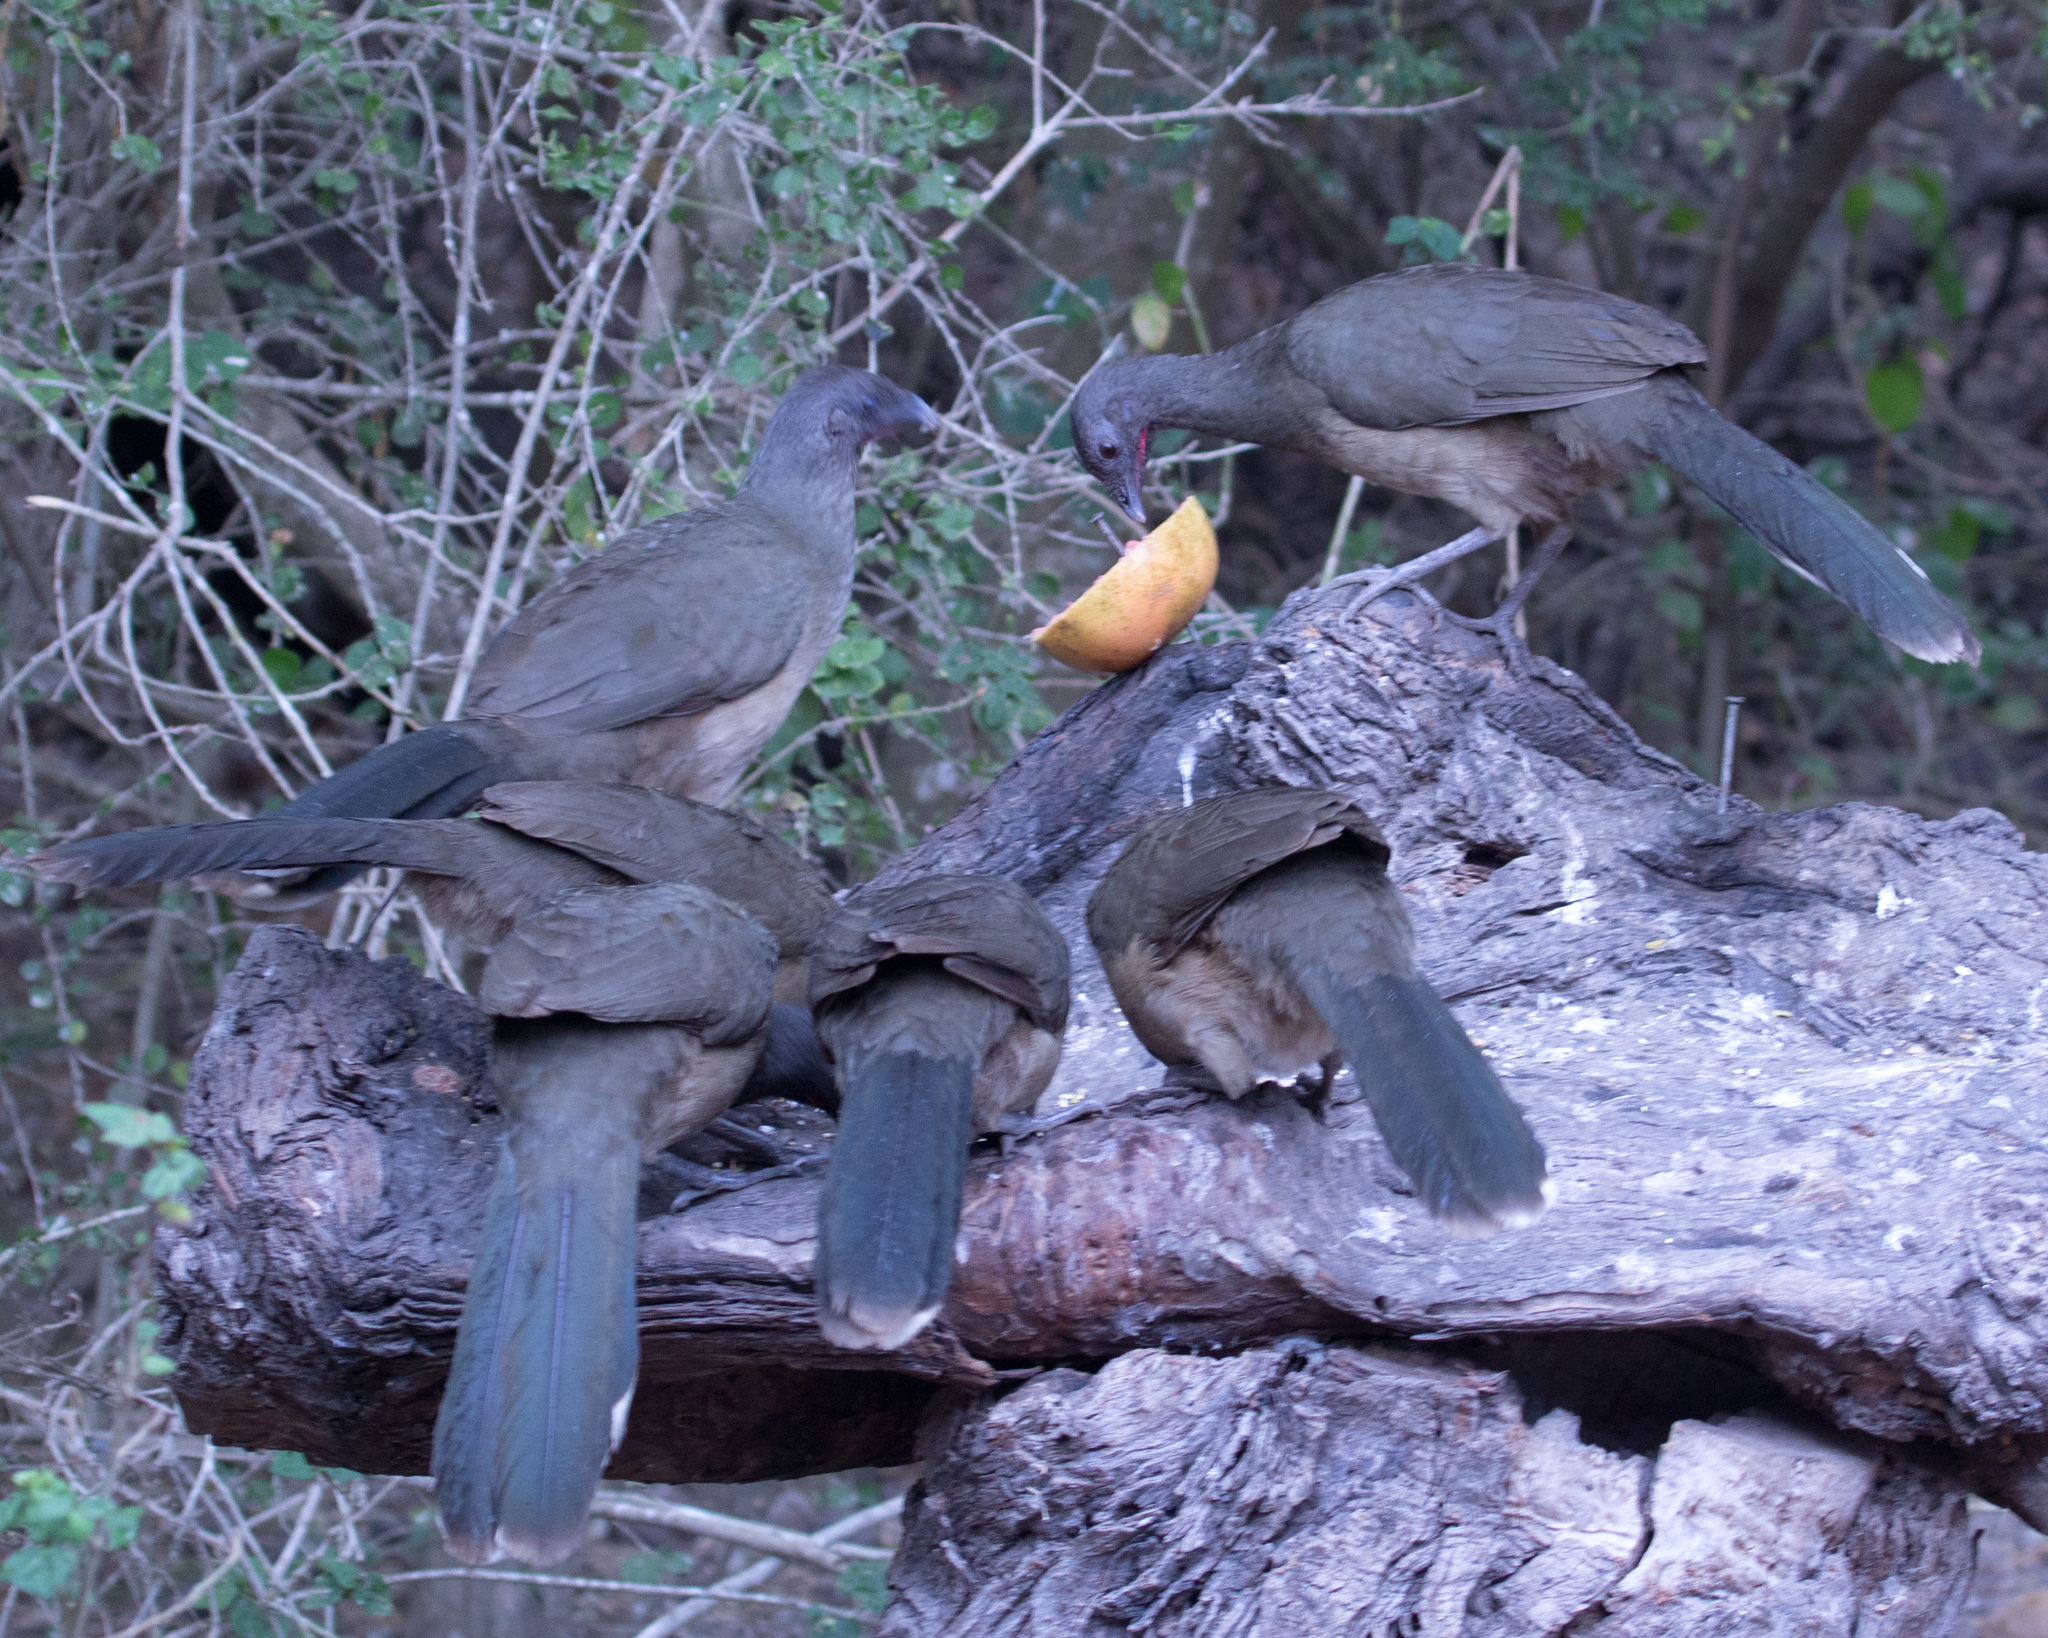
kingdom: Animalia
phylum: Chordata
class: Aves
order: Galliformes
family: Cracidae
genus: Ortalis
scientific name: Ortalis vetula
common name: Plain chachalaca
